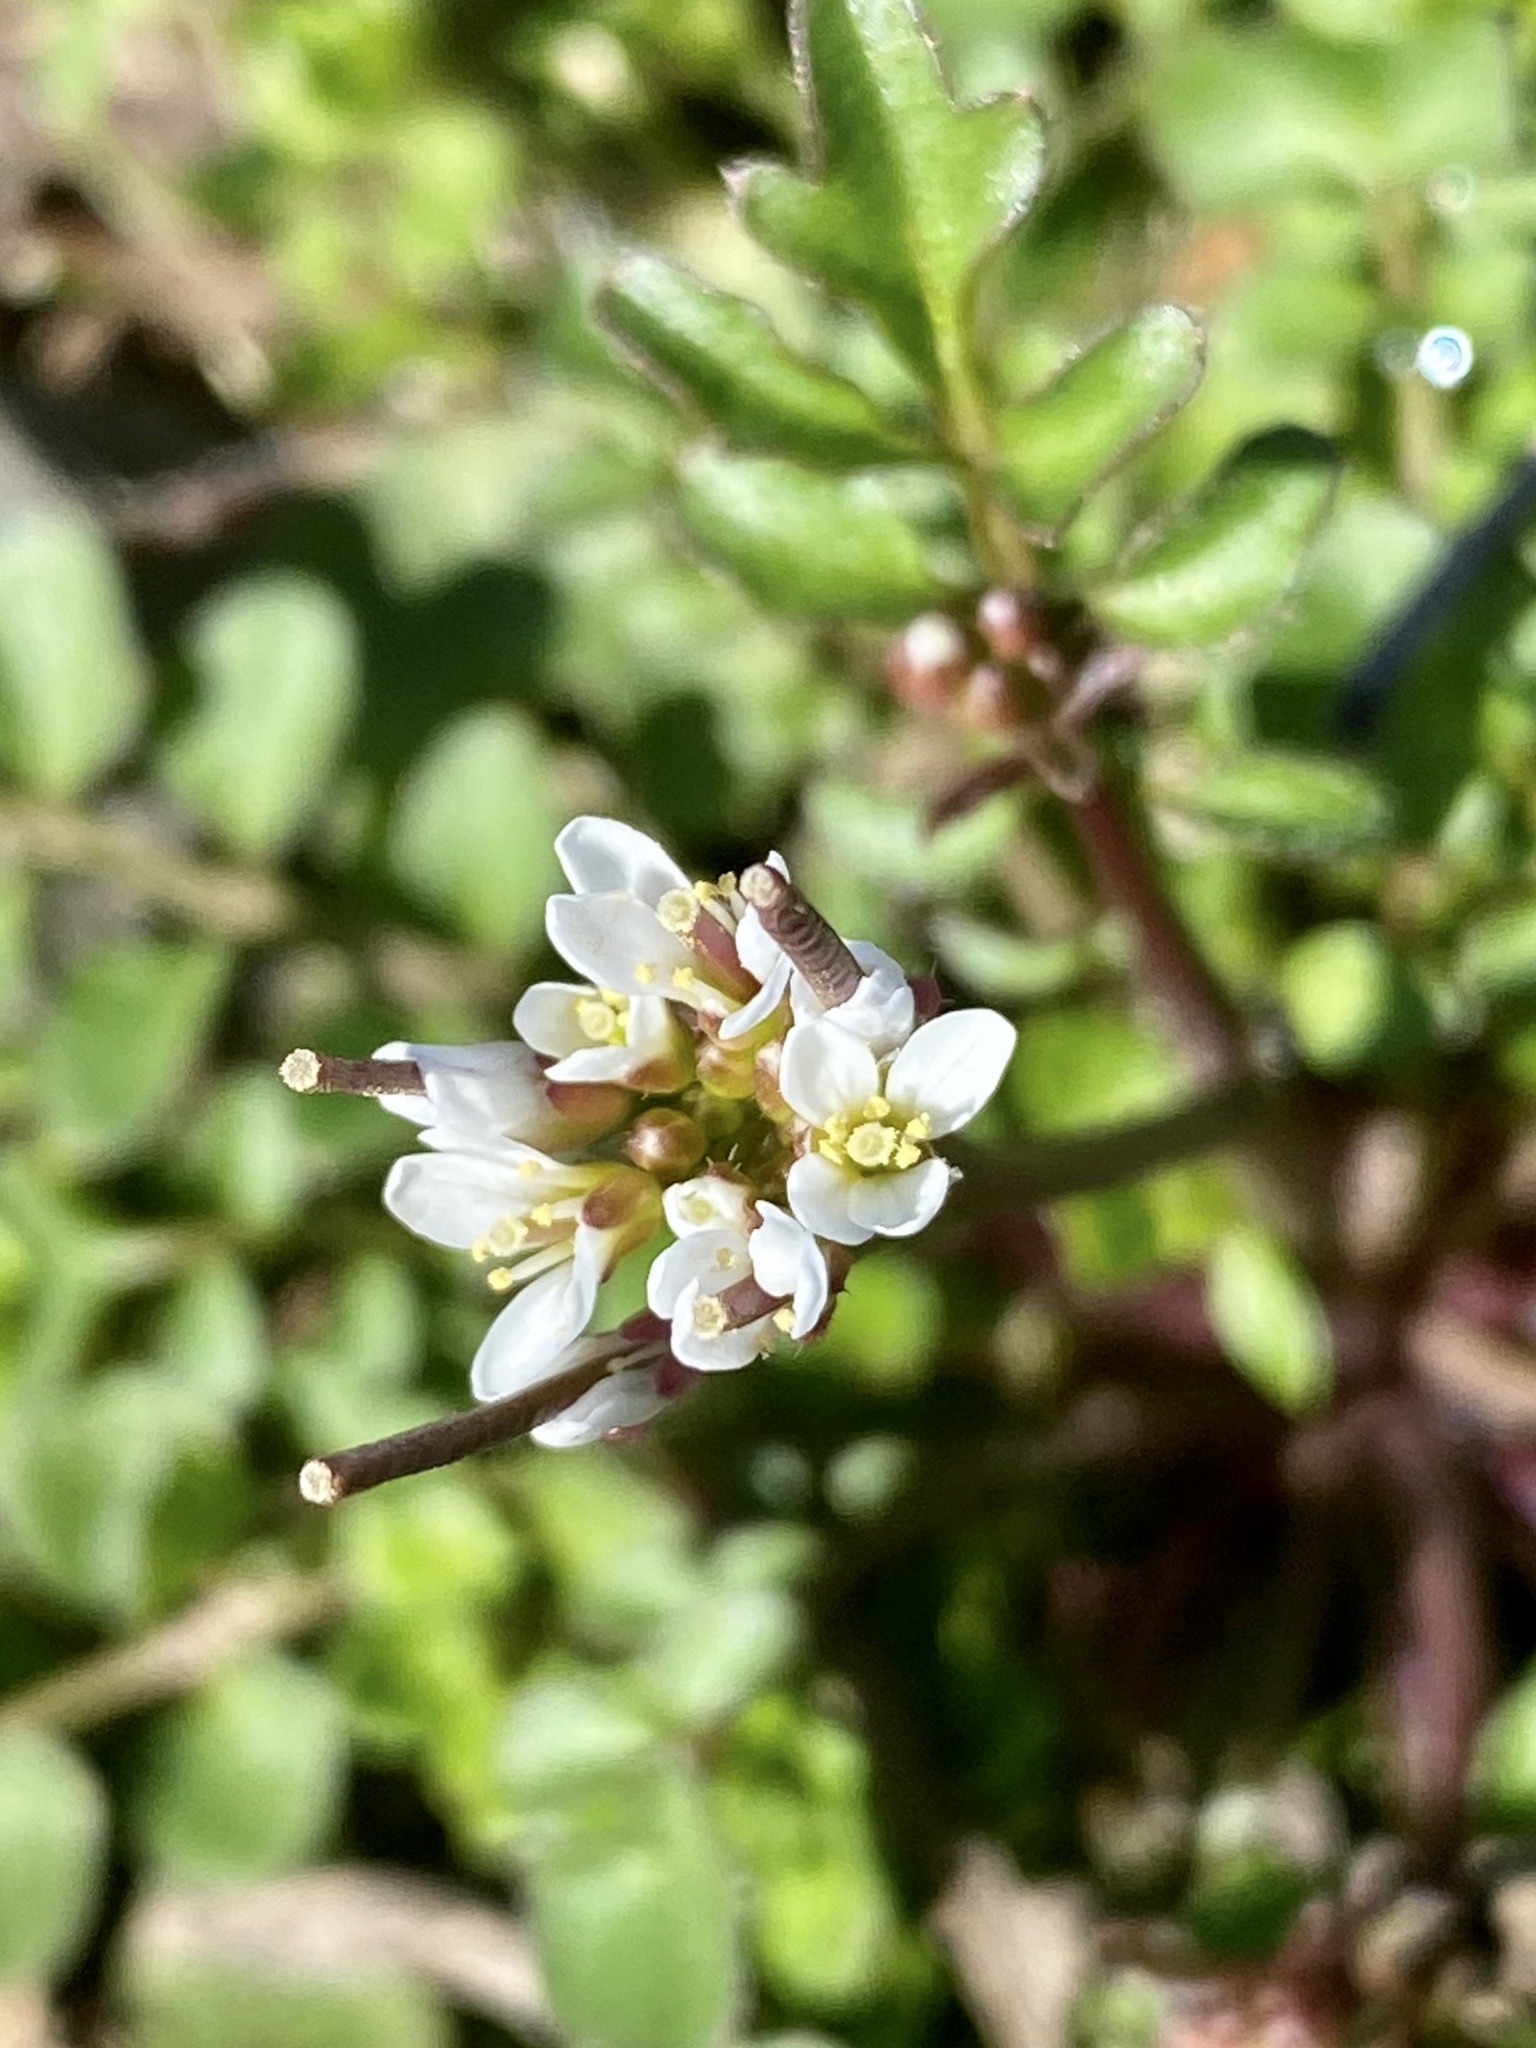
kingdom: Plantae
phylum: Tracheophyta
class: Magnoliopsida
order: Brassicales
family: Brassicaceae
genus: Cardamine
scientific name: Cardamine hirsuta
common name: Hairy bittercress
